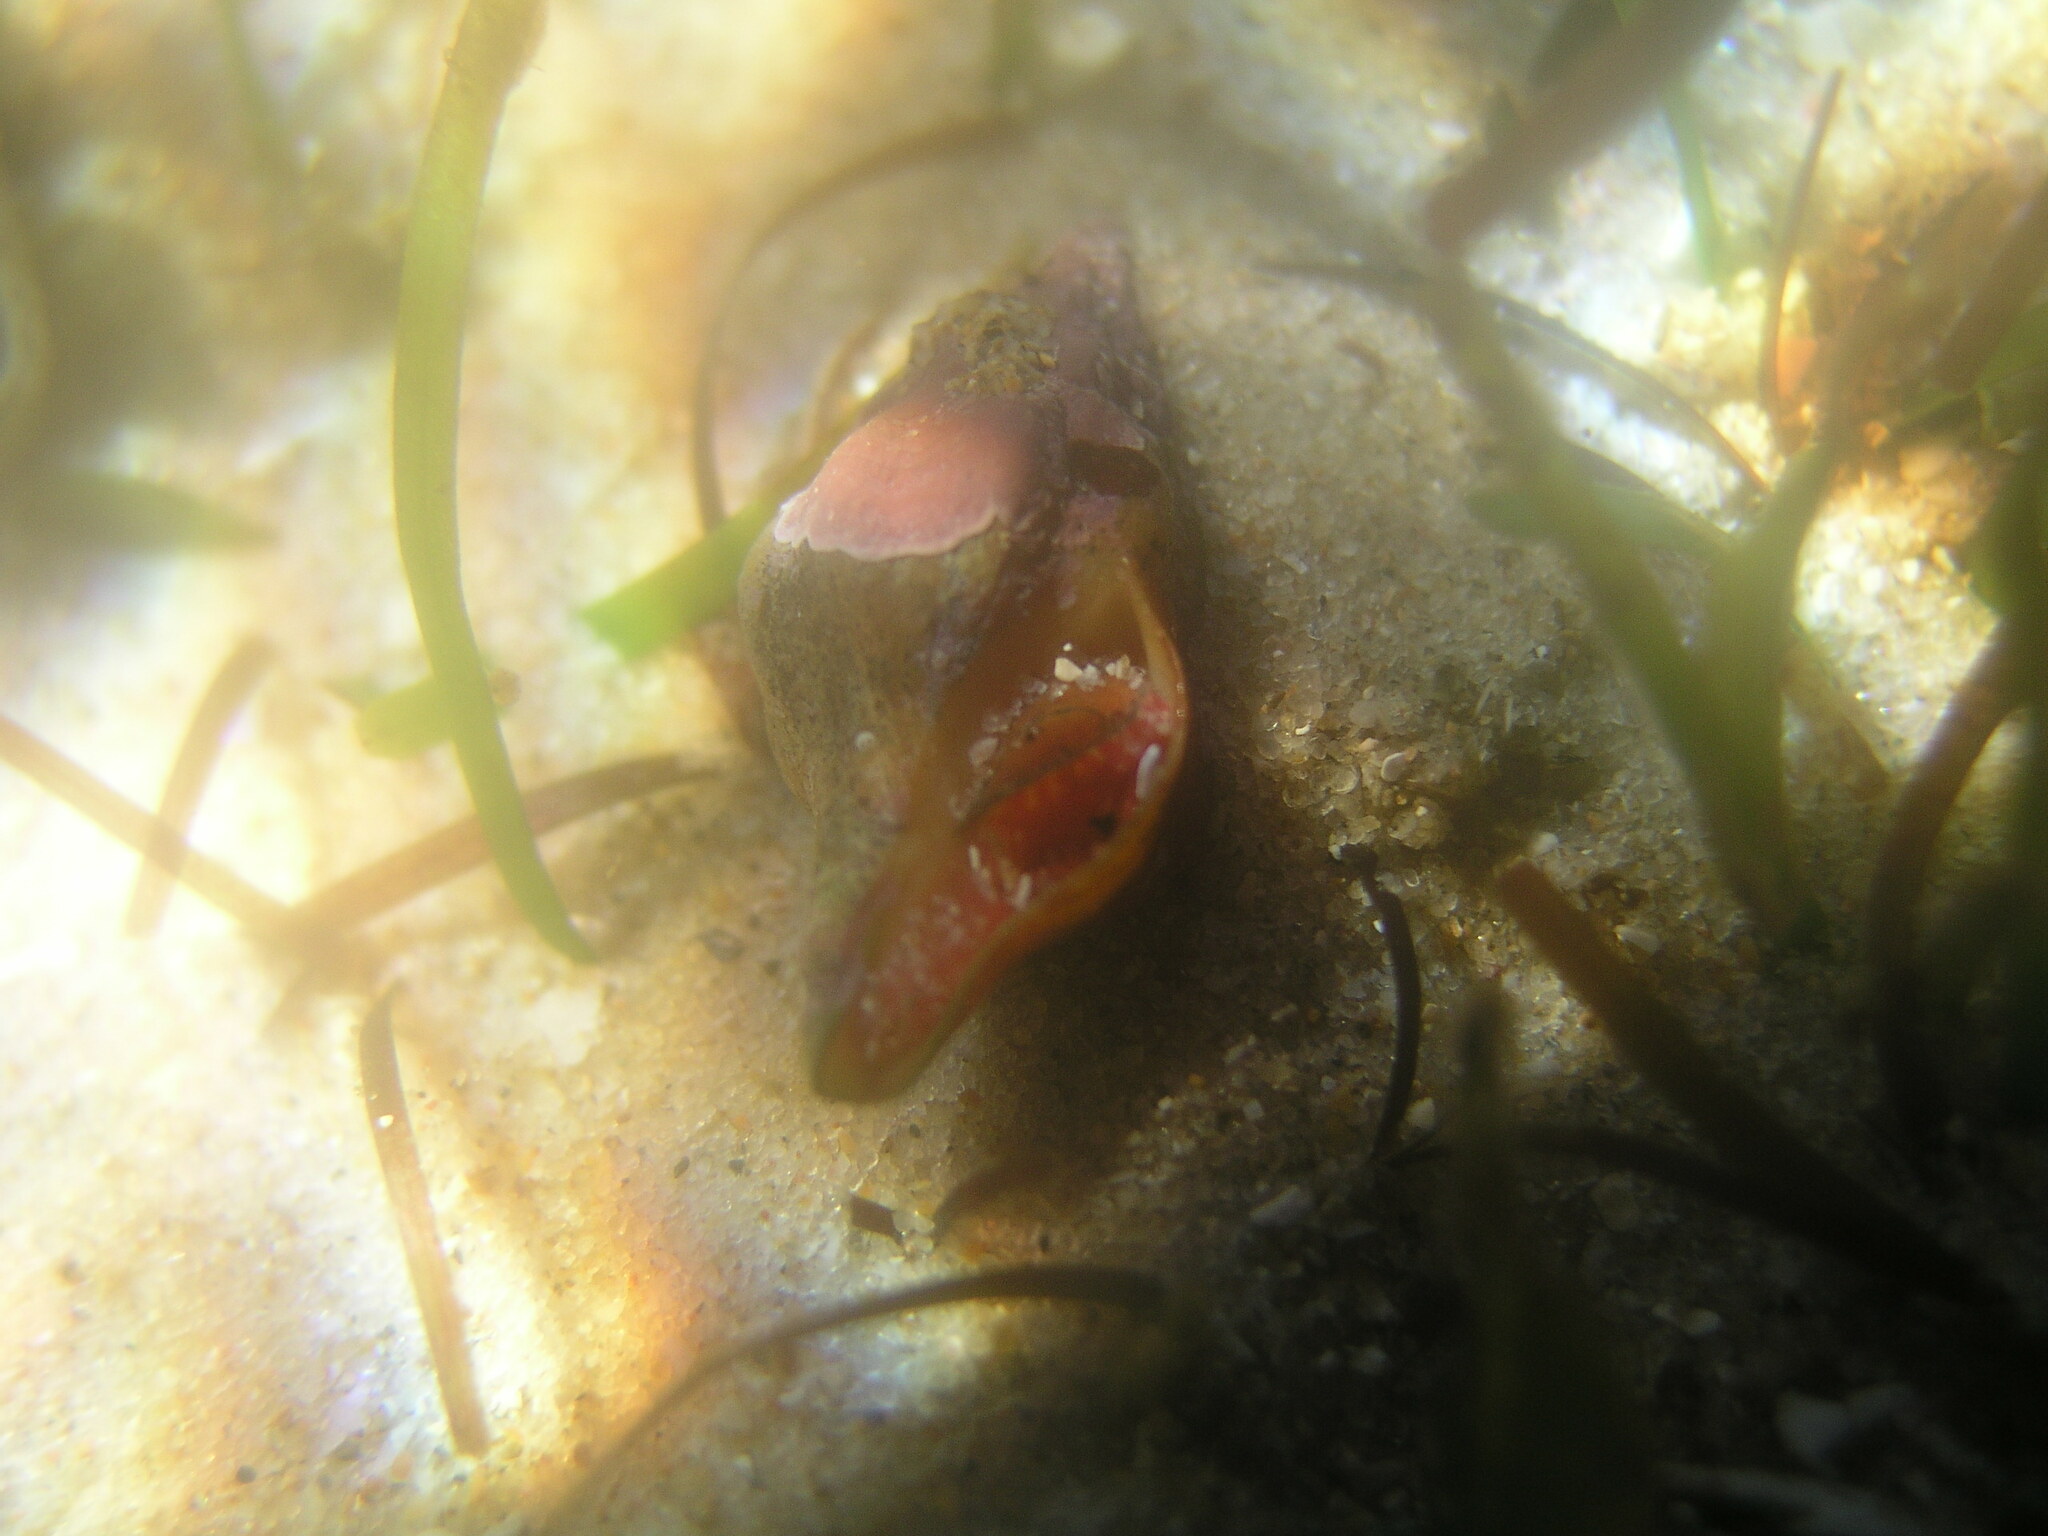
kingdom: Animalia
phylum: Mollusca
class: Gastropoda
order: Neogastropoda
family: Fasciolariidae
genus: Nodopelagia
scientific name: Nodopelagia brazieri
